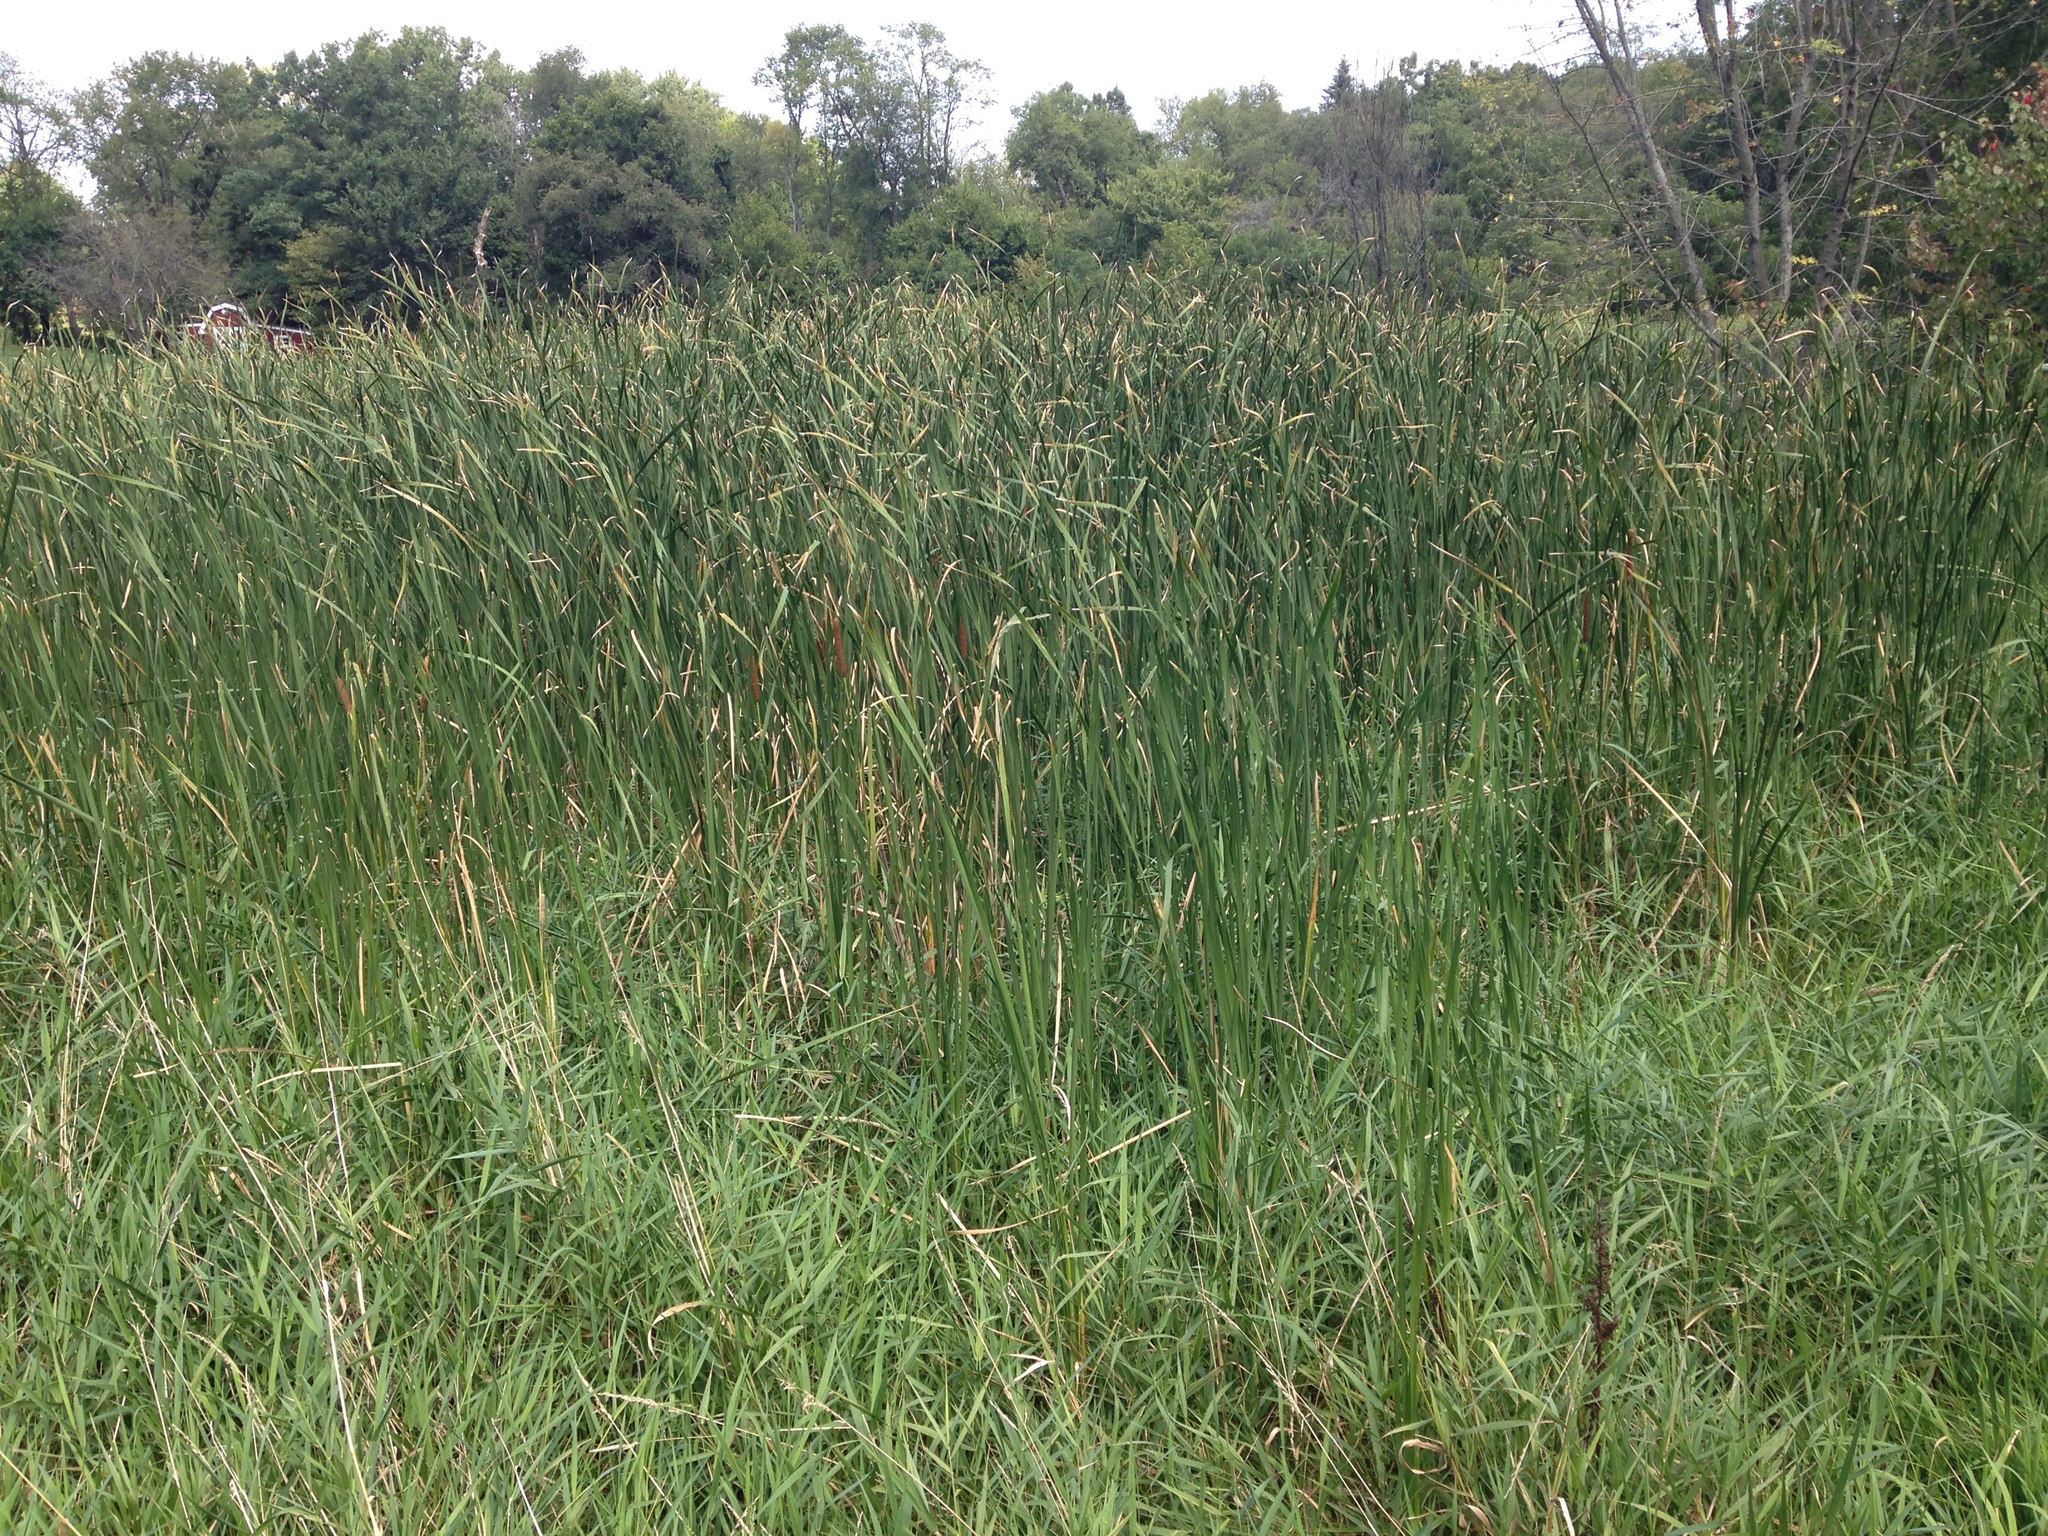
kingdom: Plantae
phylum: Tracheophyta
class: Liliopsida
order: Poales
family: Typhaceae
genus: Typha
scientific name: Typha angustifolia
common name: Lesser bulrush
